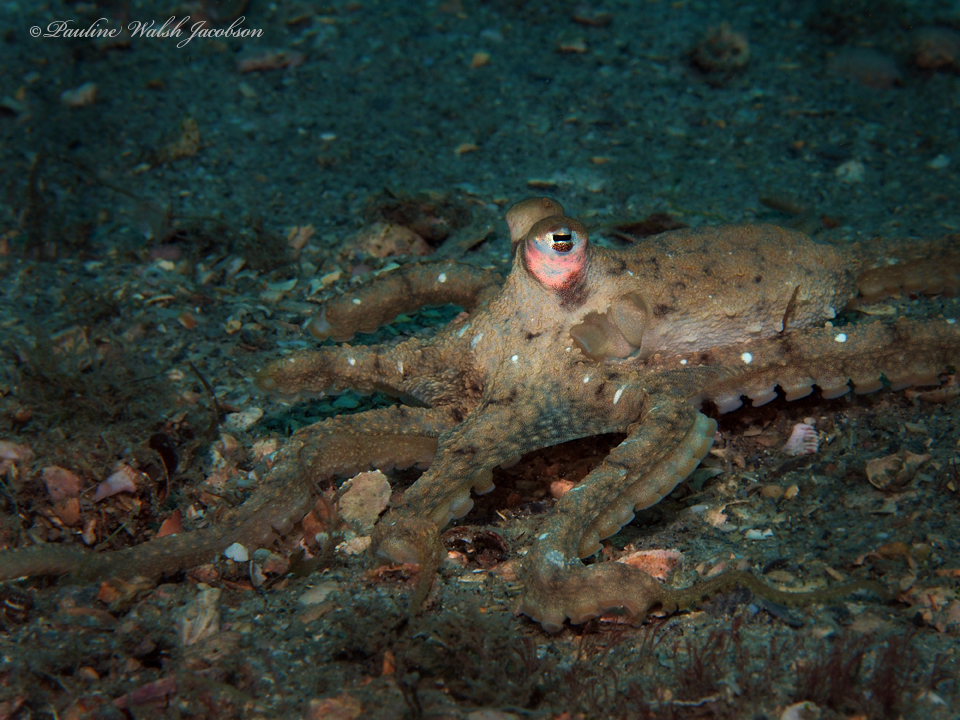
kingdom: Animalia
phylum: Mollusca
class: Cephalopoda
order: Octopoda
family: Octopodidae
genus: Macrotritopus
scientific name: Macrotritopus defilippi
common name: Lilliput longarm octopus
